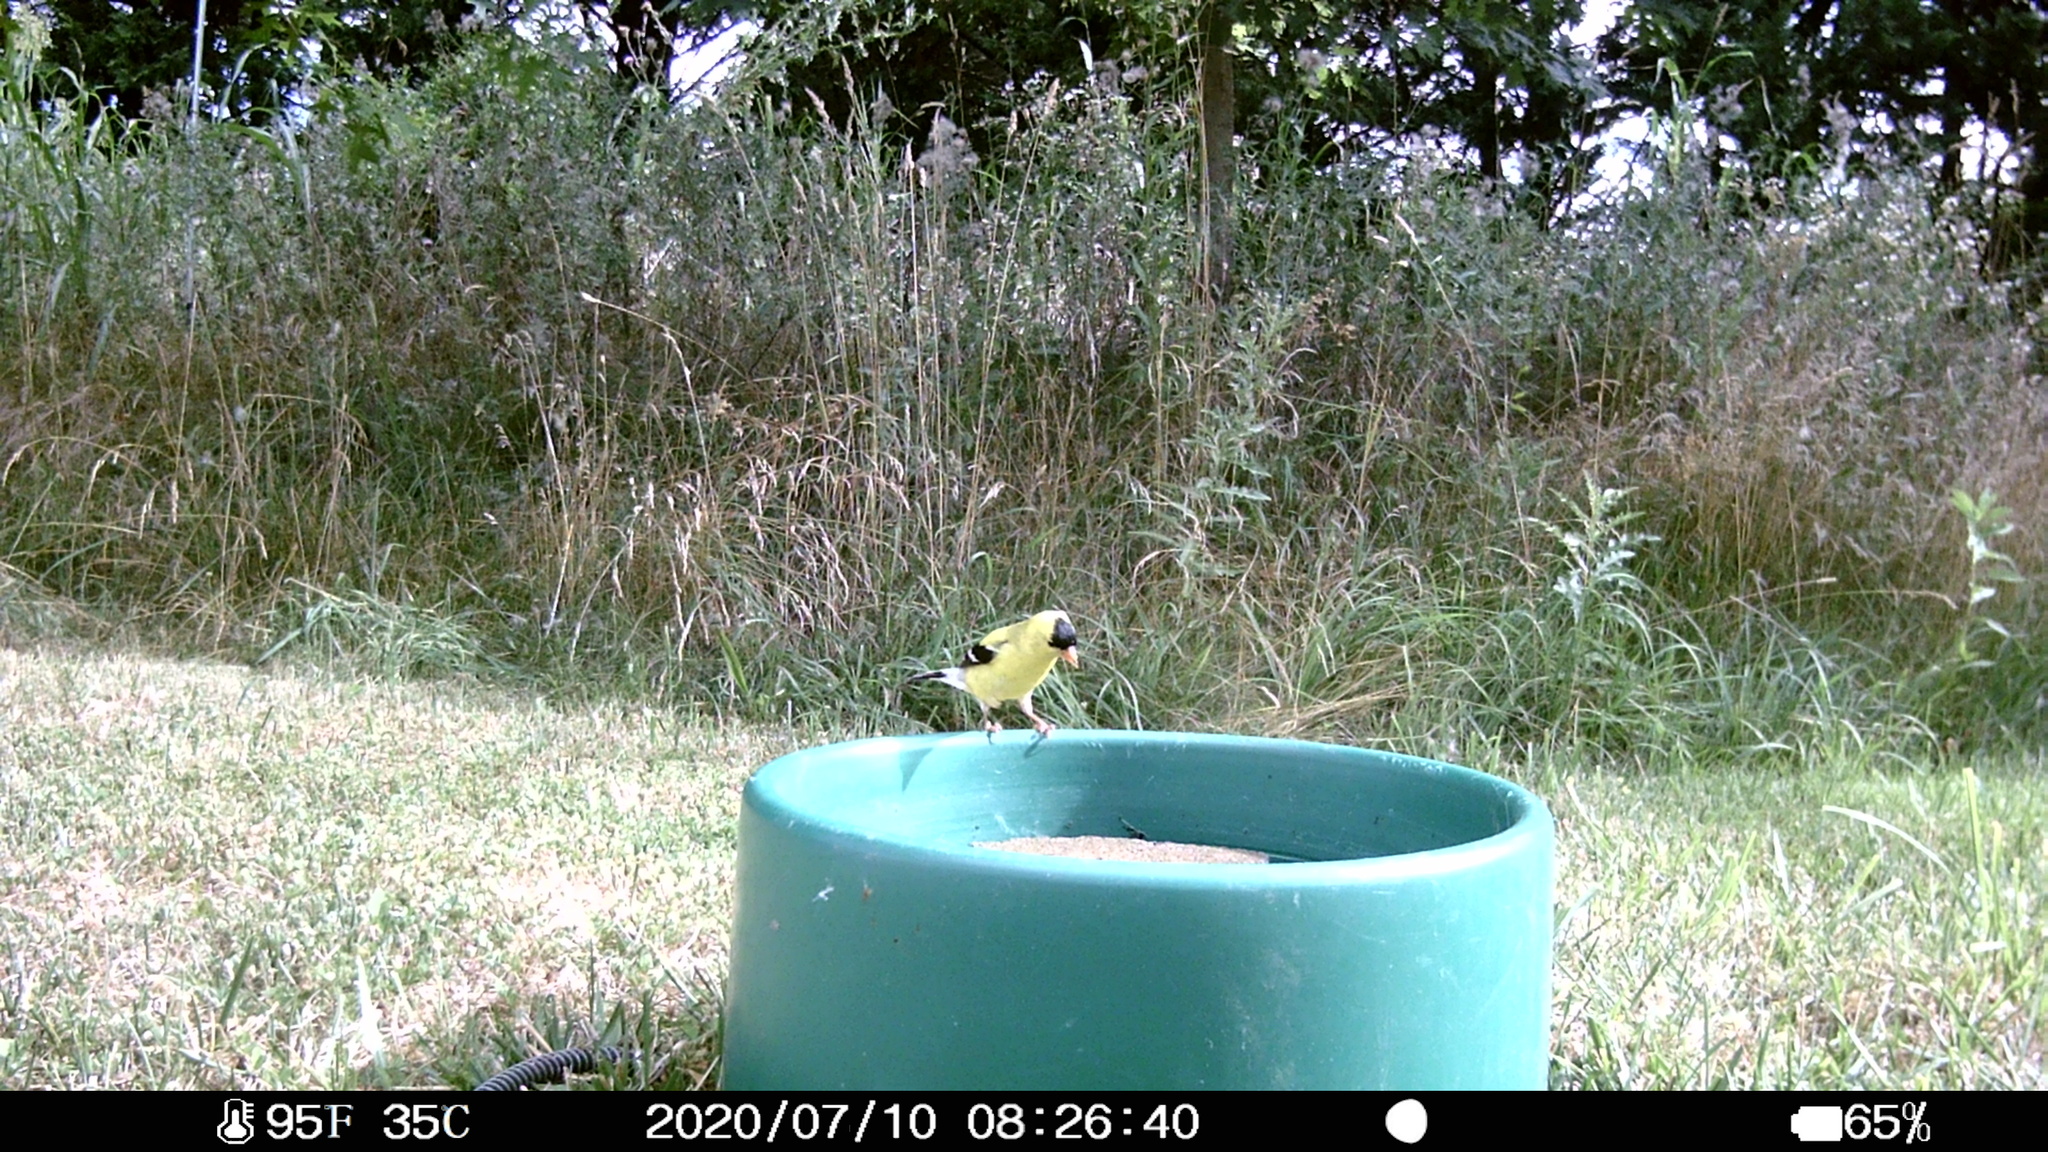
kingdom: Animalia
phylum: Chordata
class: Aves
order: Passeriformes
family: Fringillidae
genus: Spinus
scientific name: Spinus tristis
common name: American goldfinch
